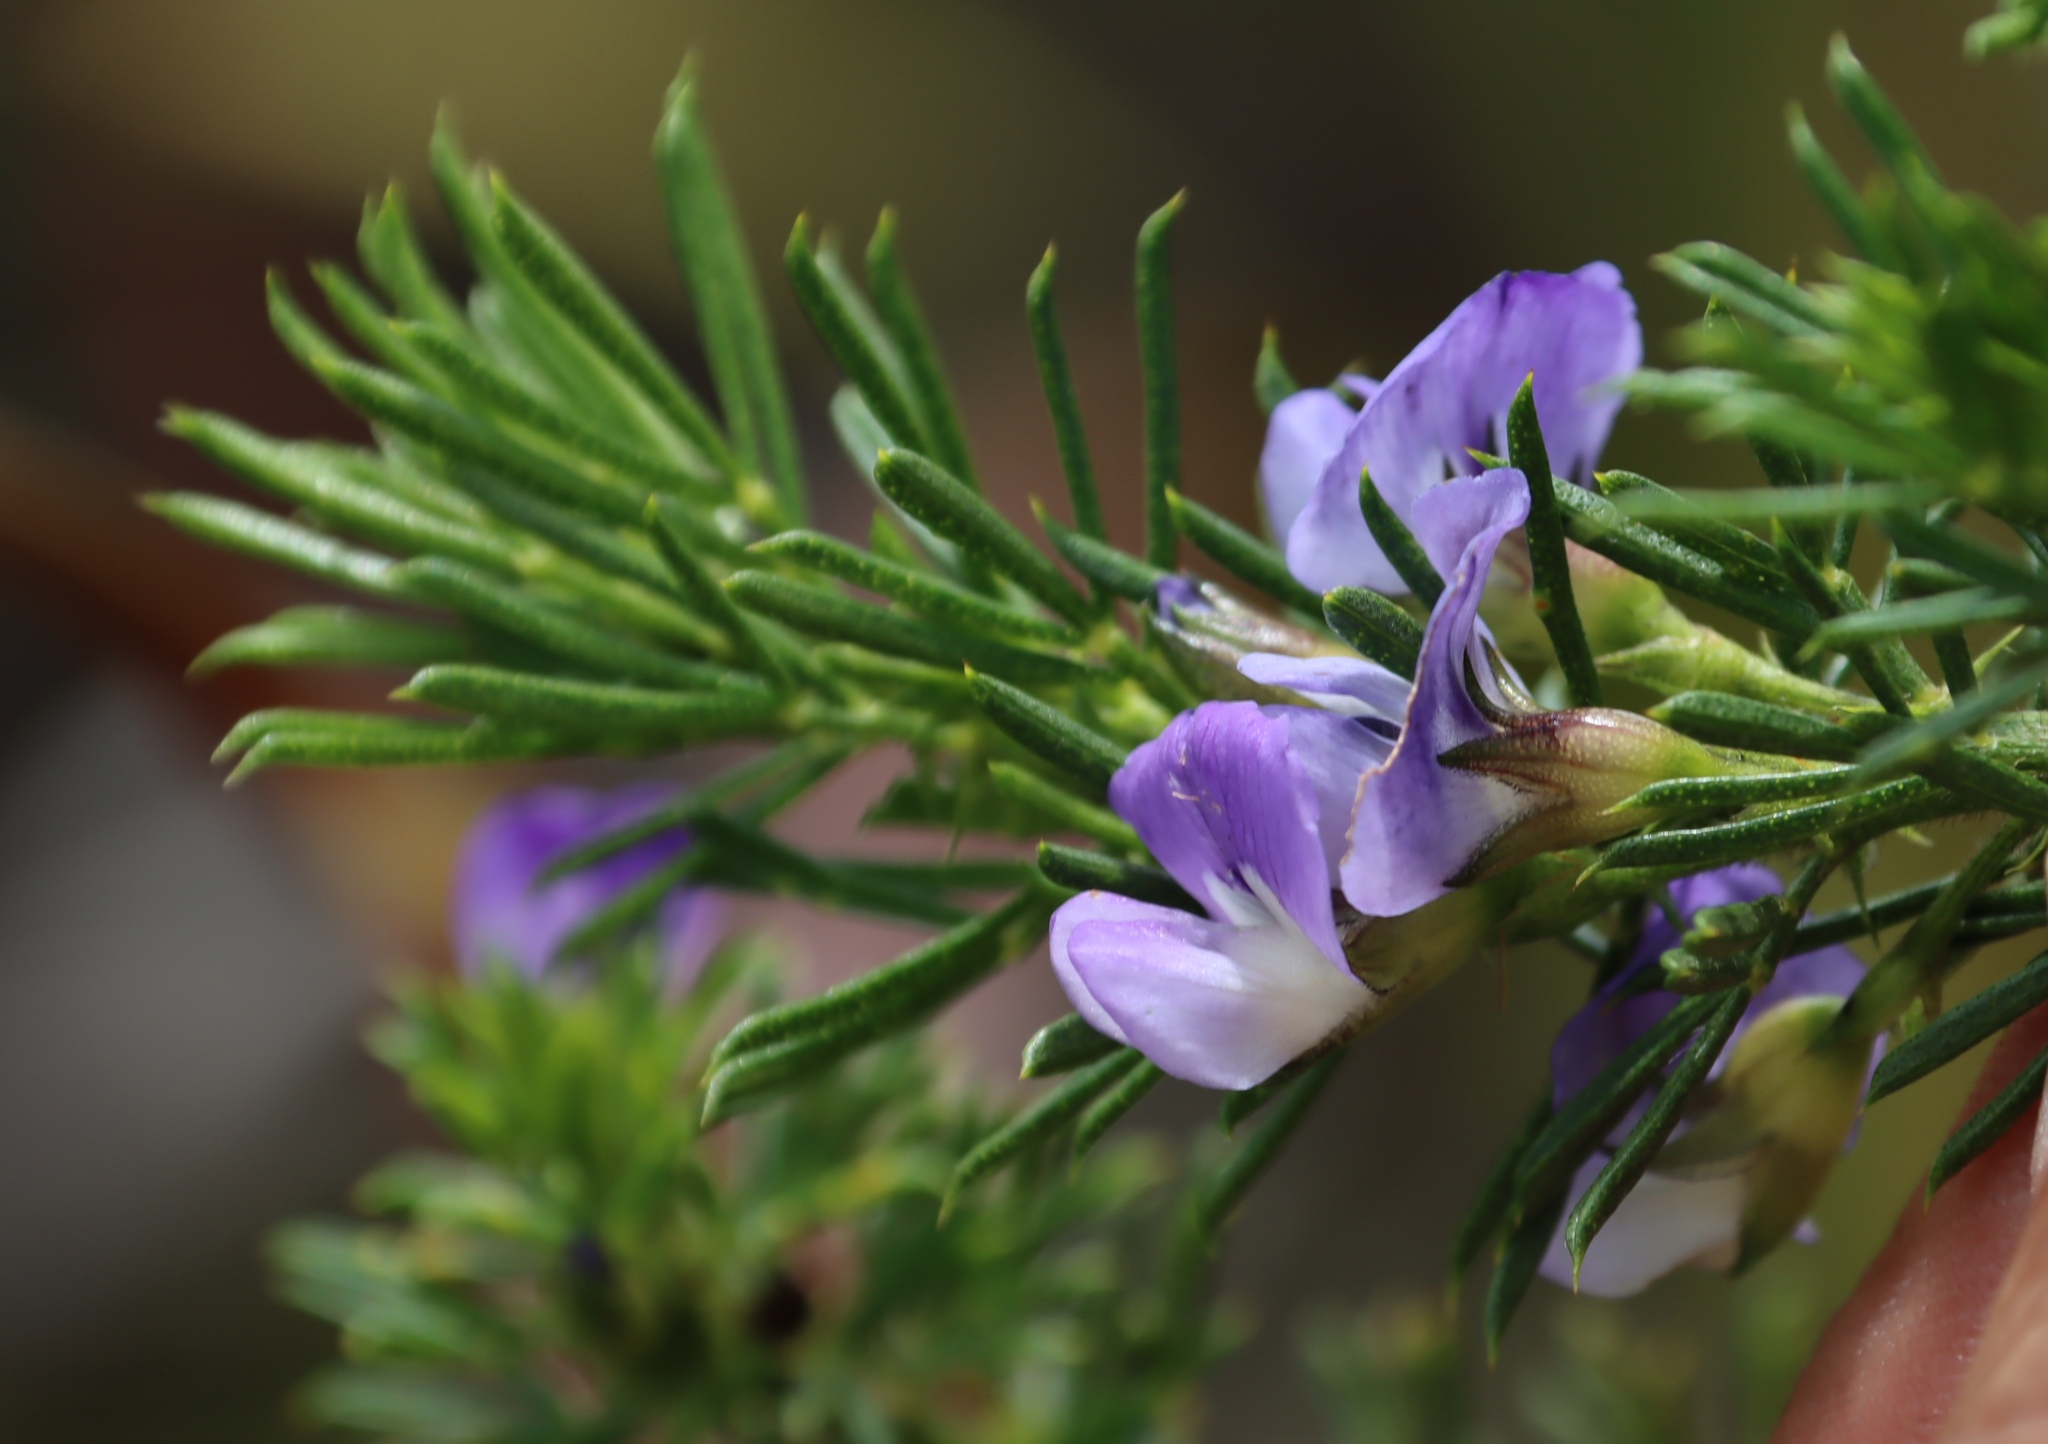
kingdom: Plantae
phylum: Tracheophyta
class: Magnoliopsida
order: Fabales
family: Fabaceae
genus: Psoralea
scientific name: Psoralea pinnata
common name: African scurfpea
